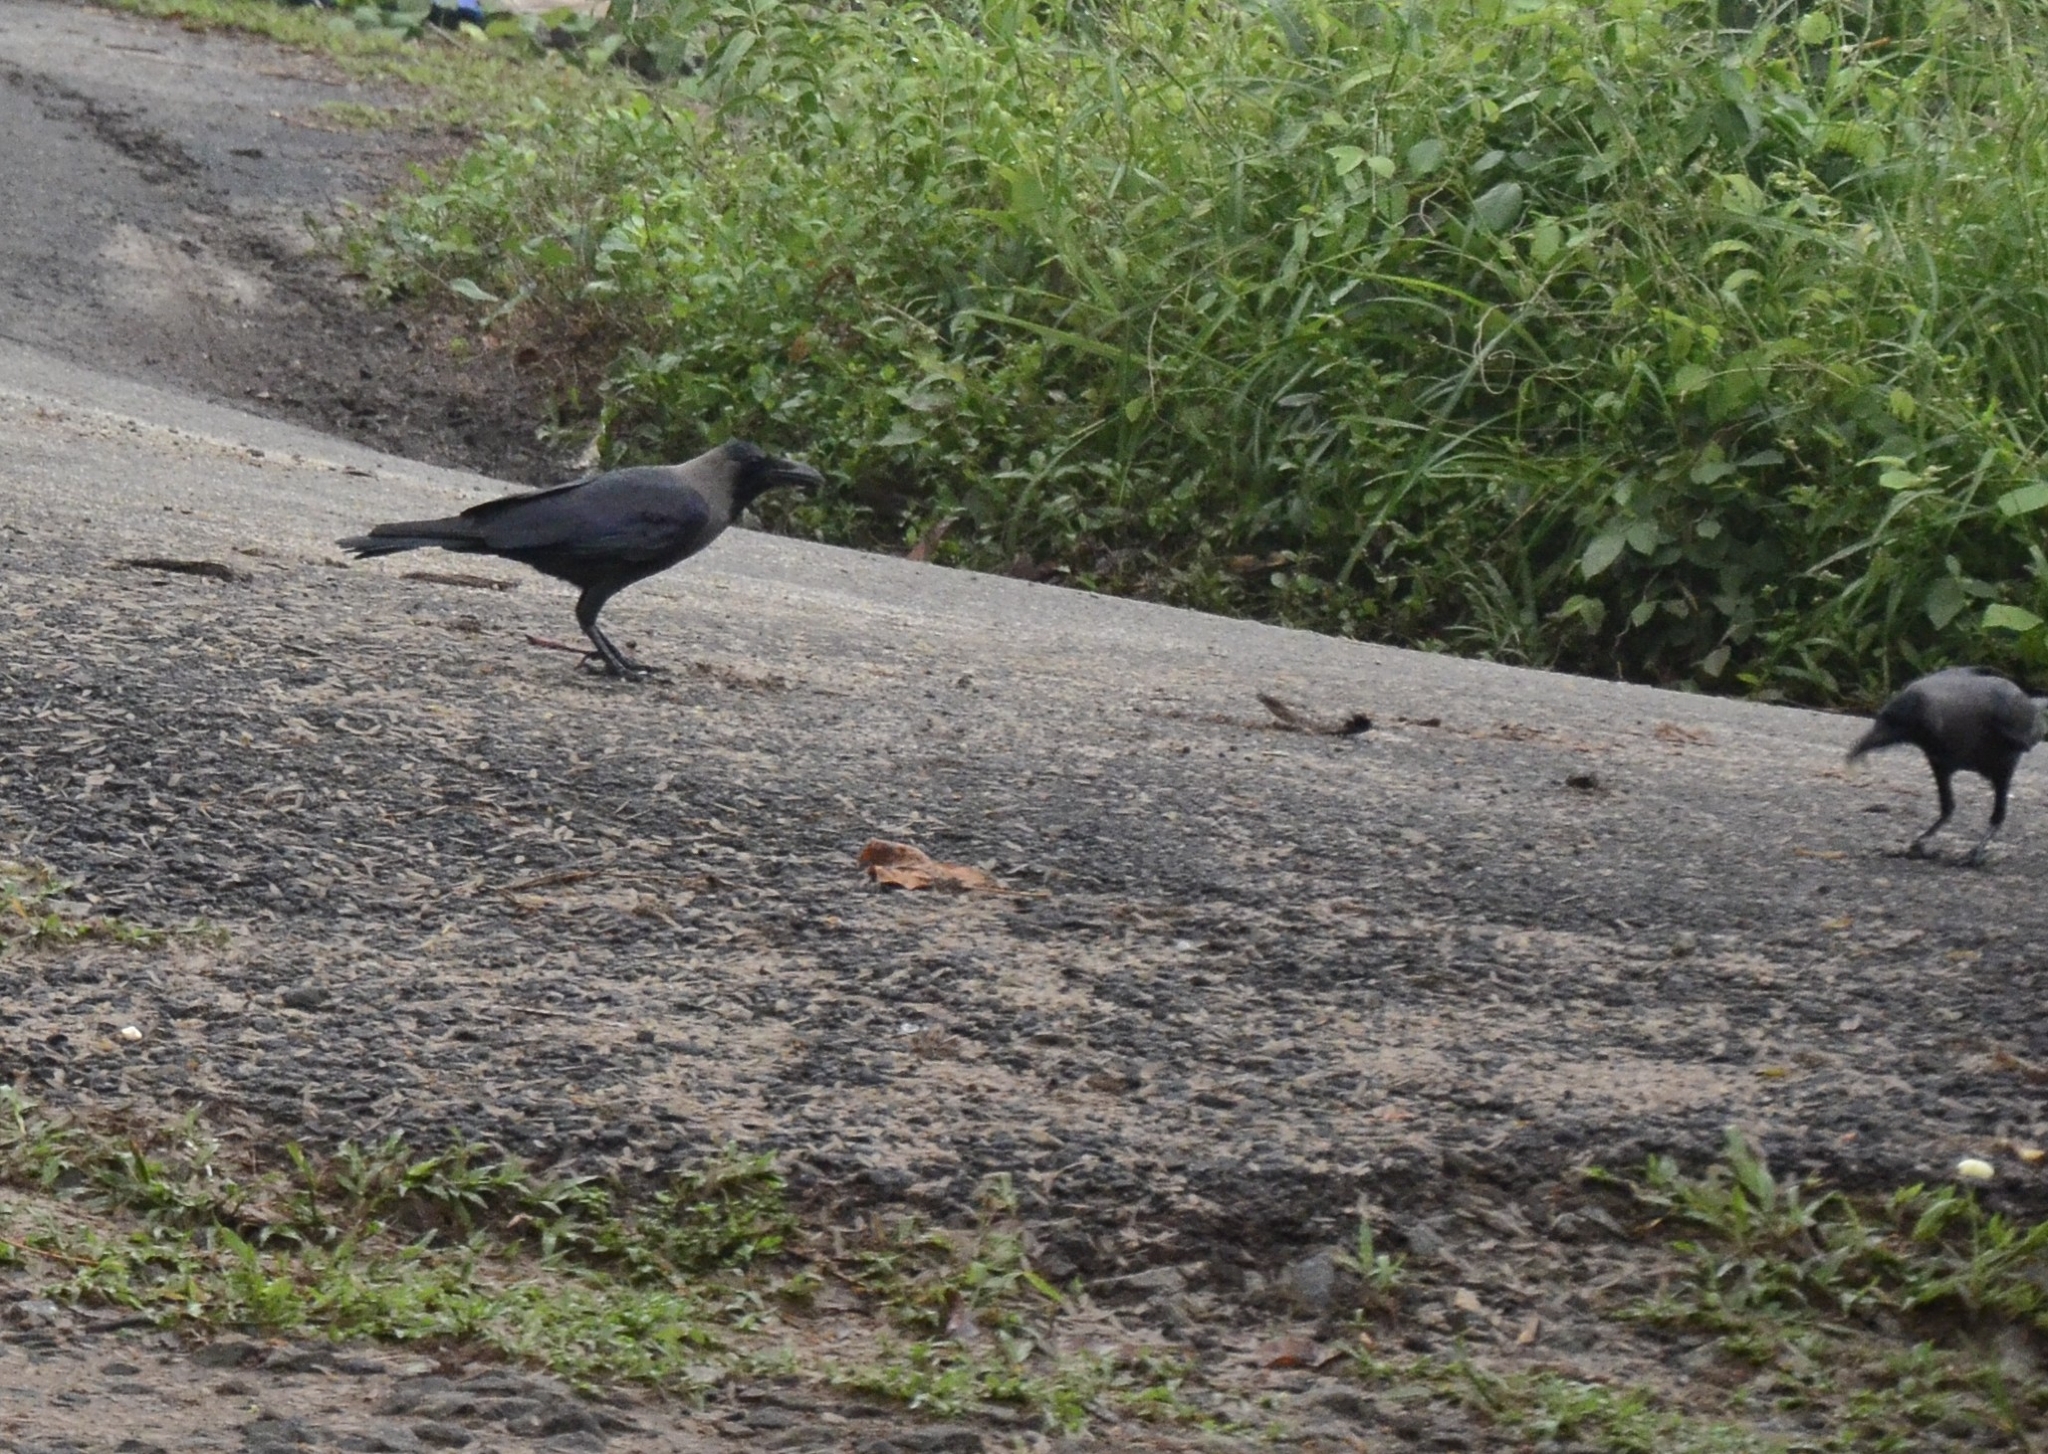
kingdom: Animalia
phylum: Chordata
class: Aves
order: Passeriformes
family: Corvidae
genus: Corvus
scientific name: Corvus splendens
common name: House crow
